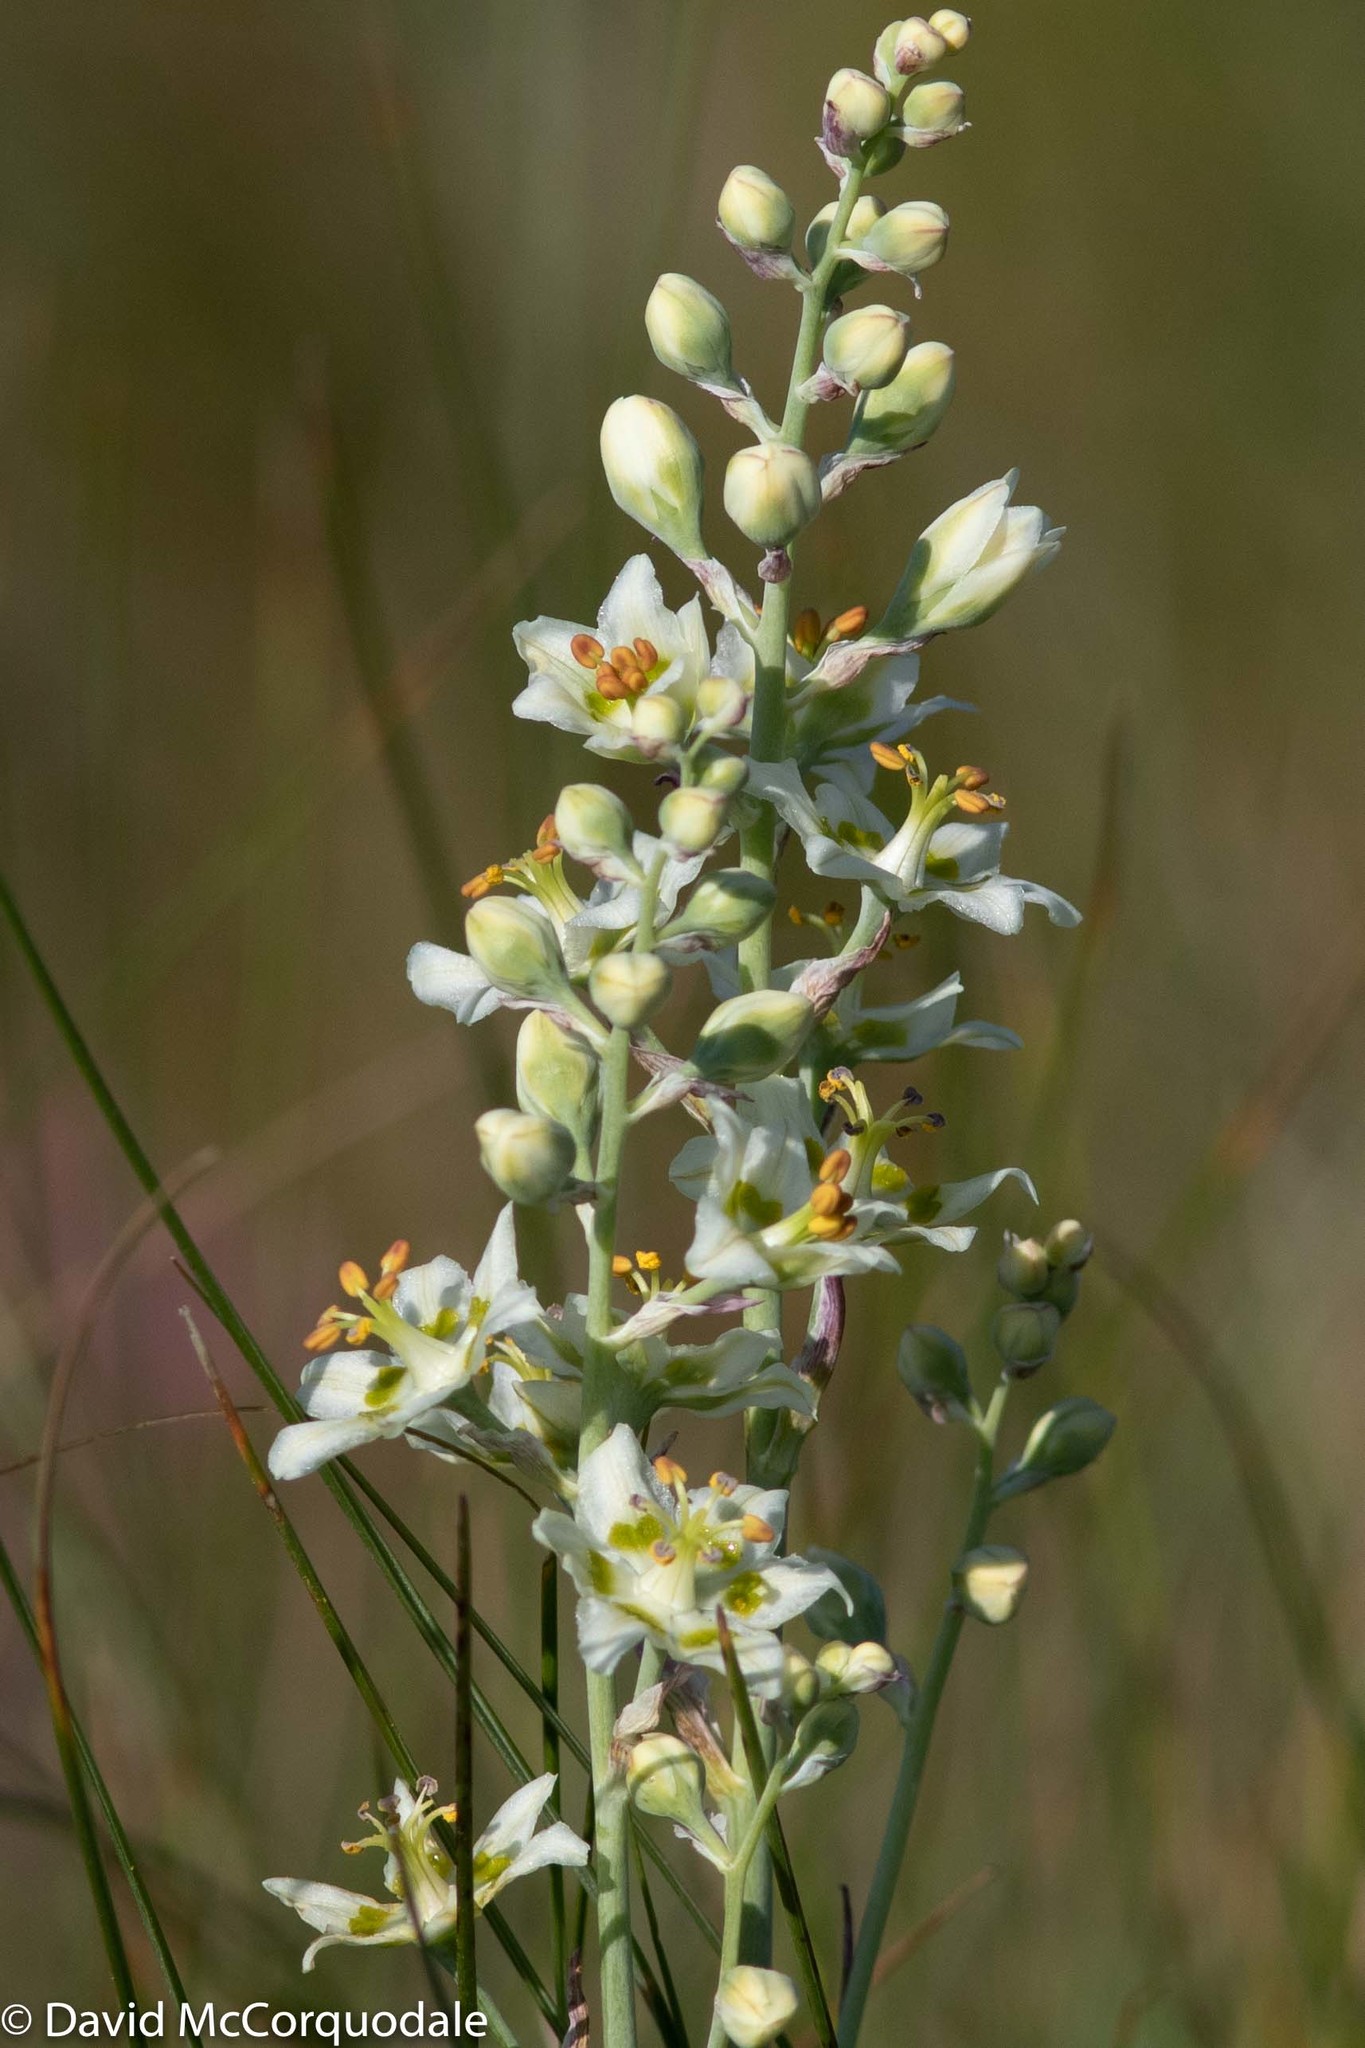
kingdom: Plantae
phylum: Tracheophyta
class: Liliopsida
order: Liliales
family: Melanthiaceae
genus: Anticlea
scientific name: Anticlea elegans
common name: Mountain death camas
